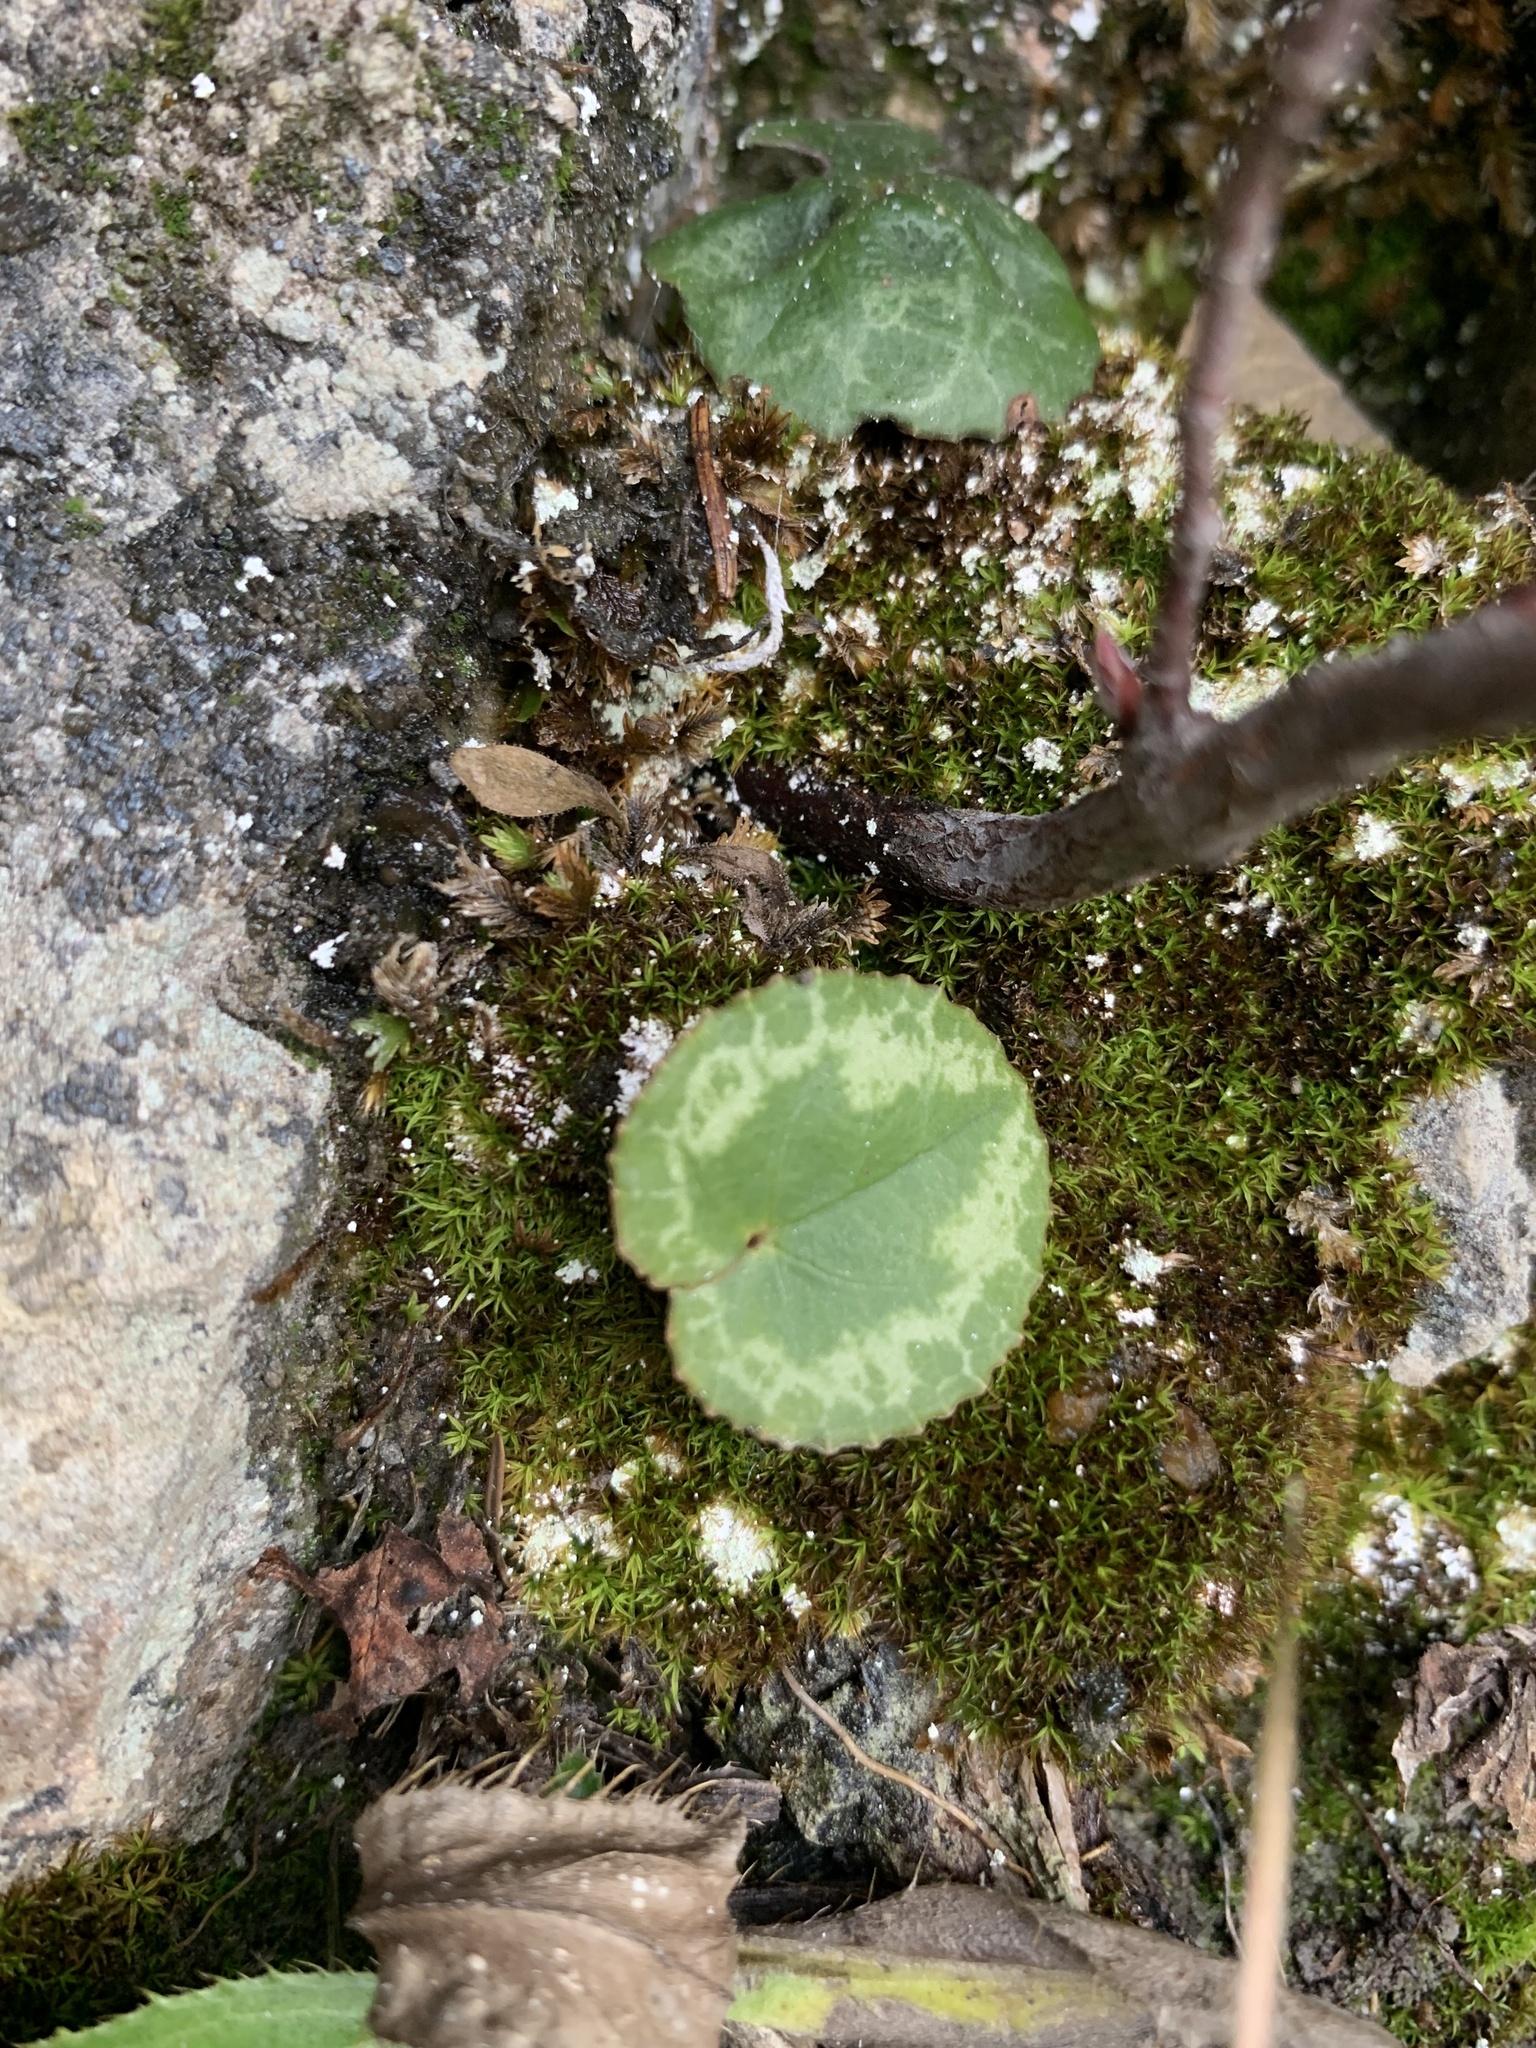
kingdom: Plantae
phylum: Tracheophyta
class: Magnoliopsida
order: Ericales
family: Primulaceae
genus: Cyclamen
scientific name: Cyclamen purpurascens
